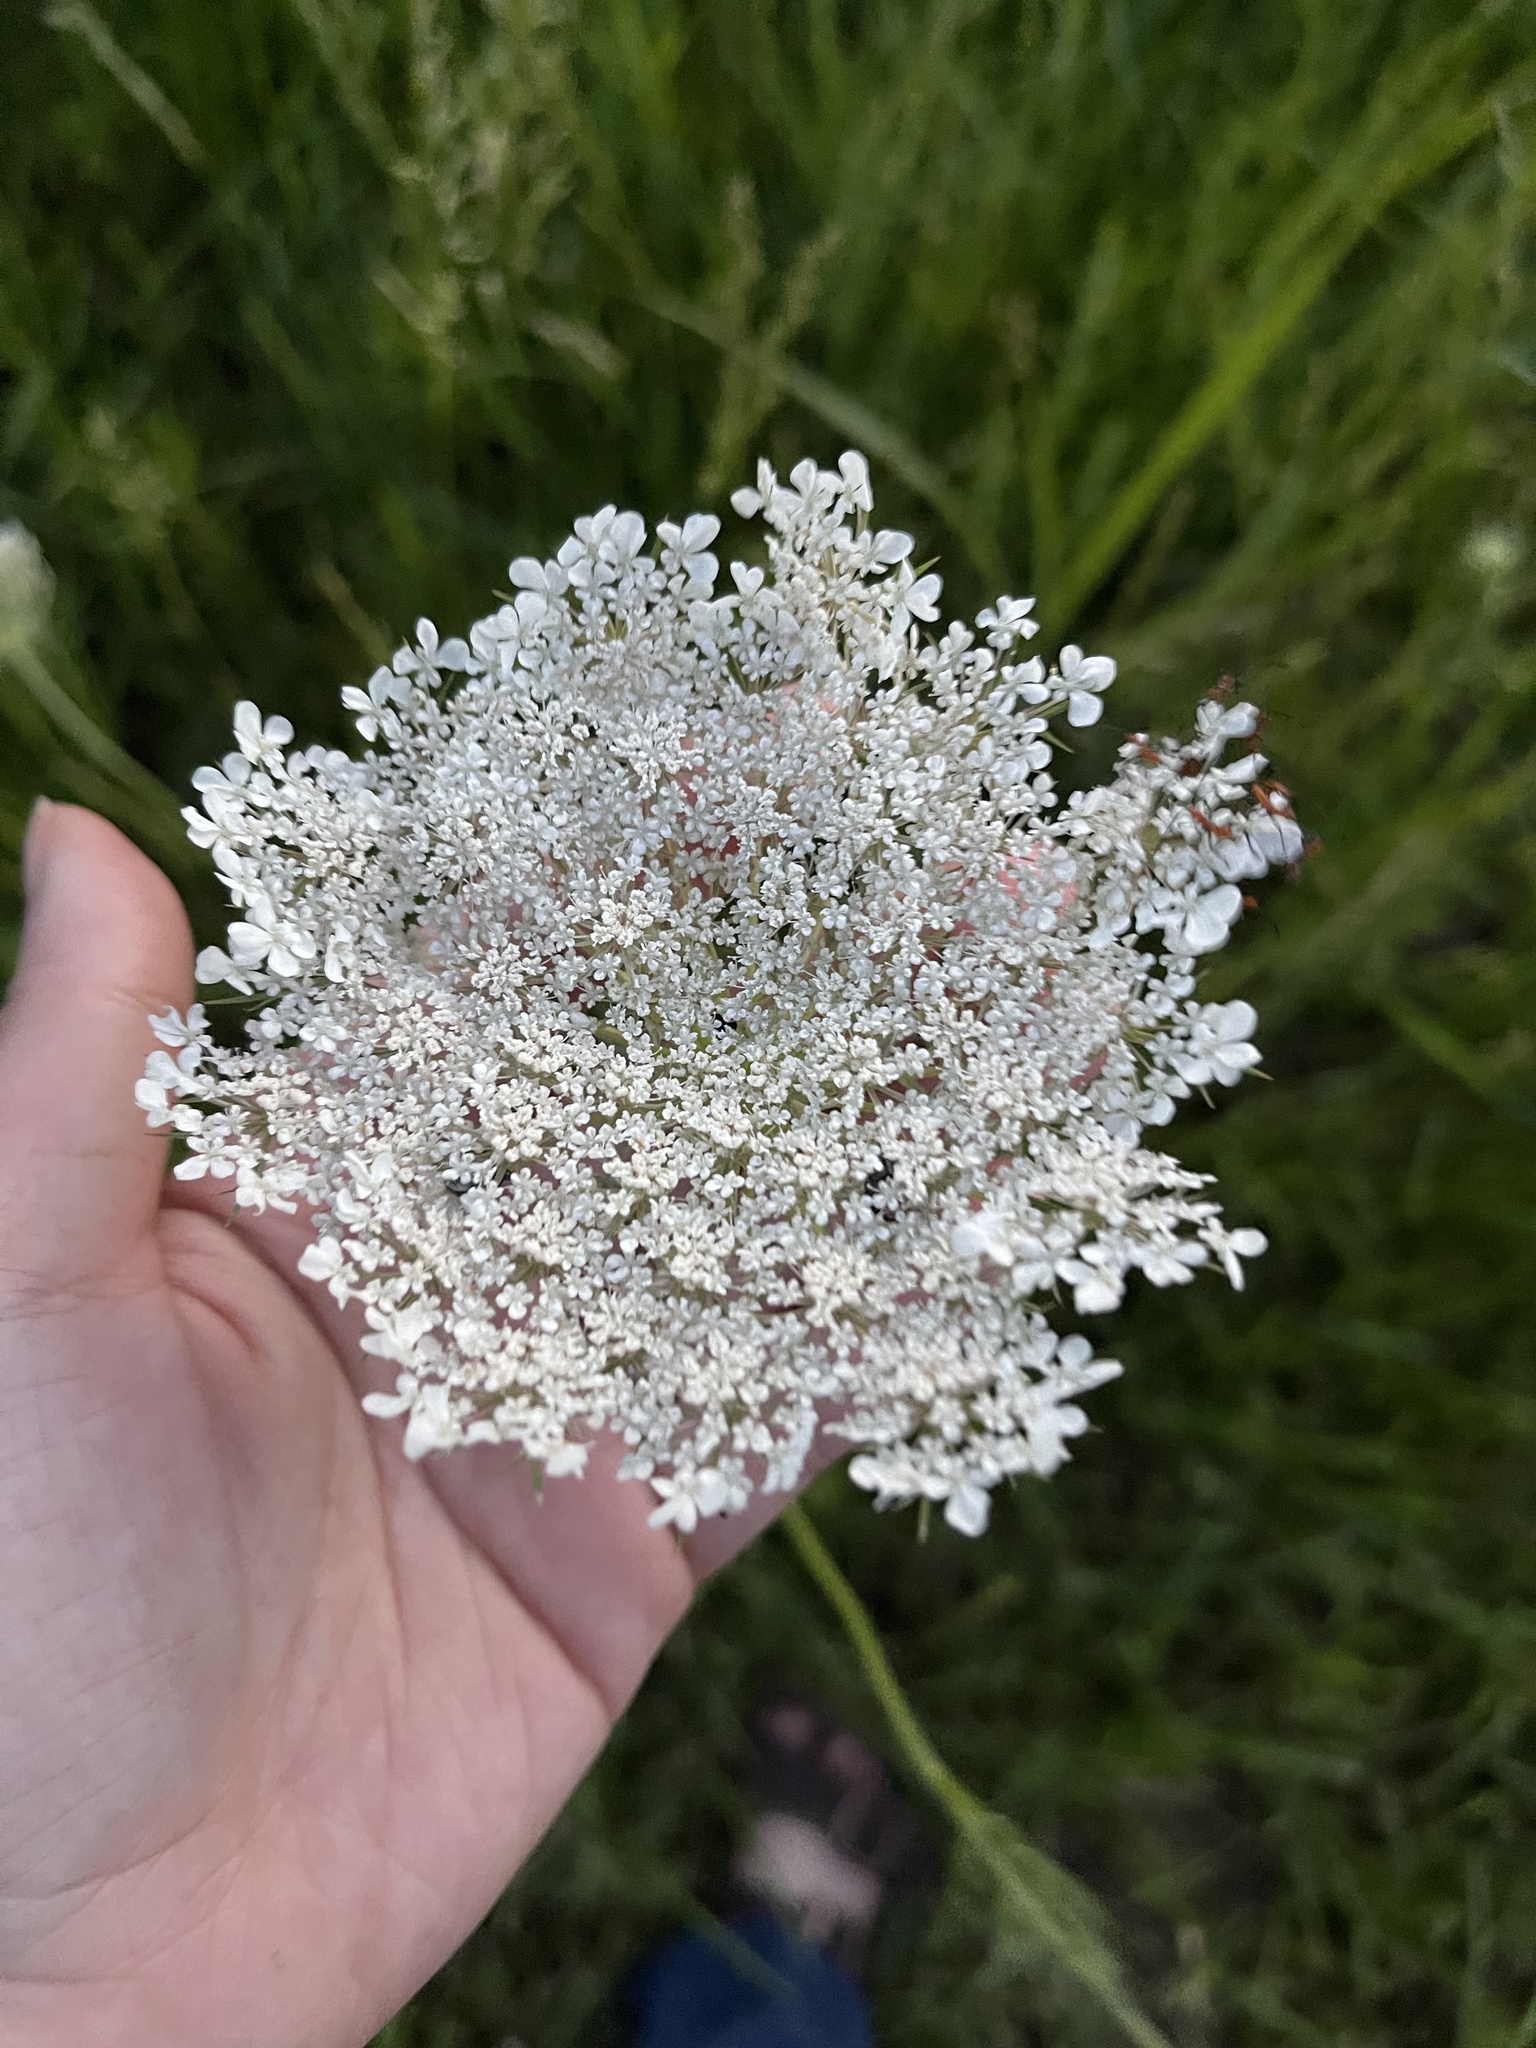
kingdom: Plantae
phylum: Tracheophyta
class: Magnoliopsida
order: Apiales
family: Apiaceae
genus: Daucus
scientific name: Daucus carota
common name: Wild carrot
